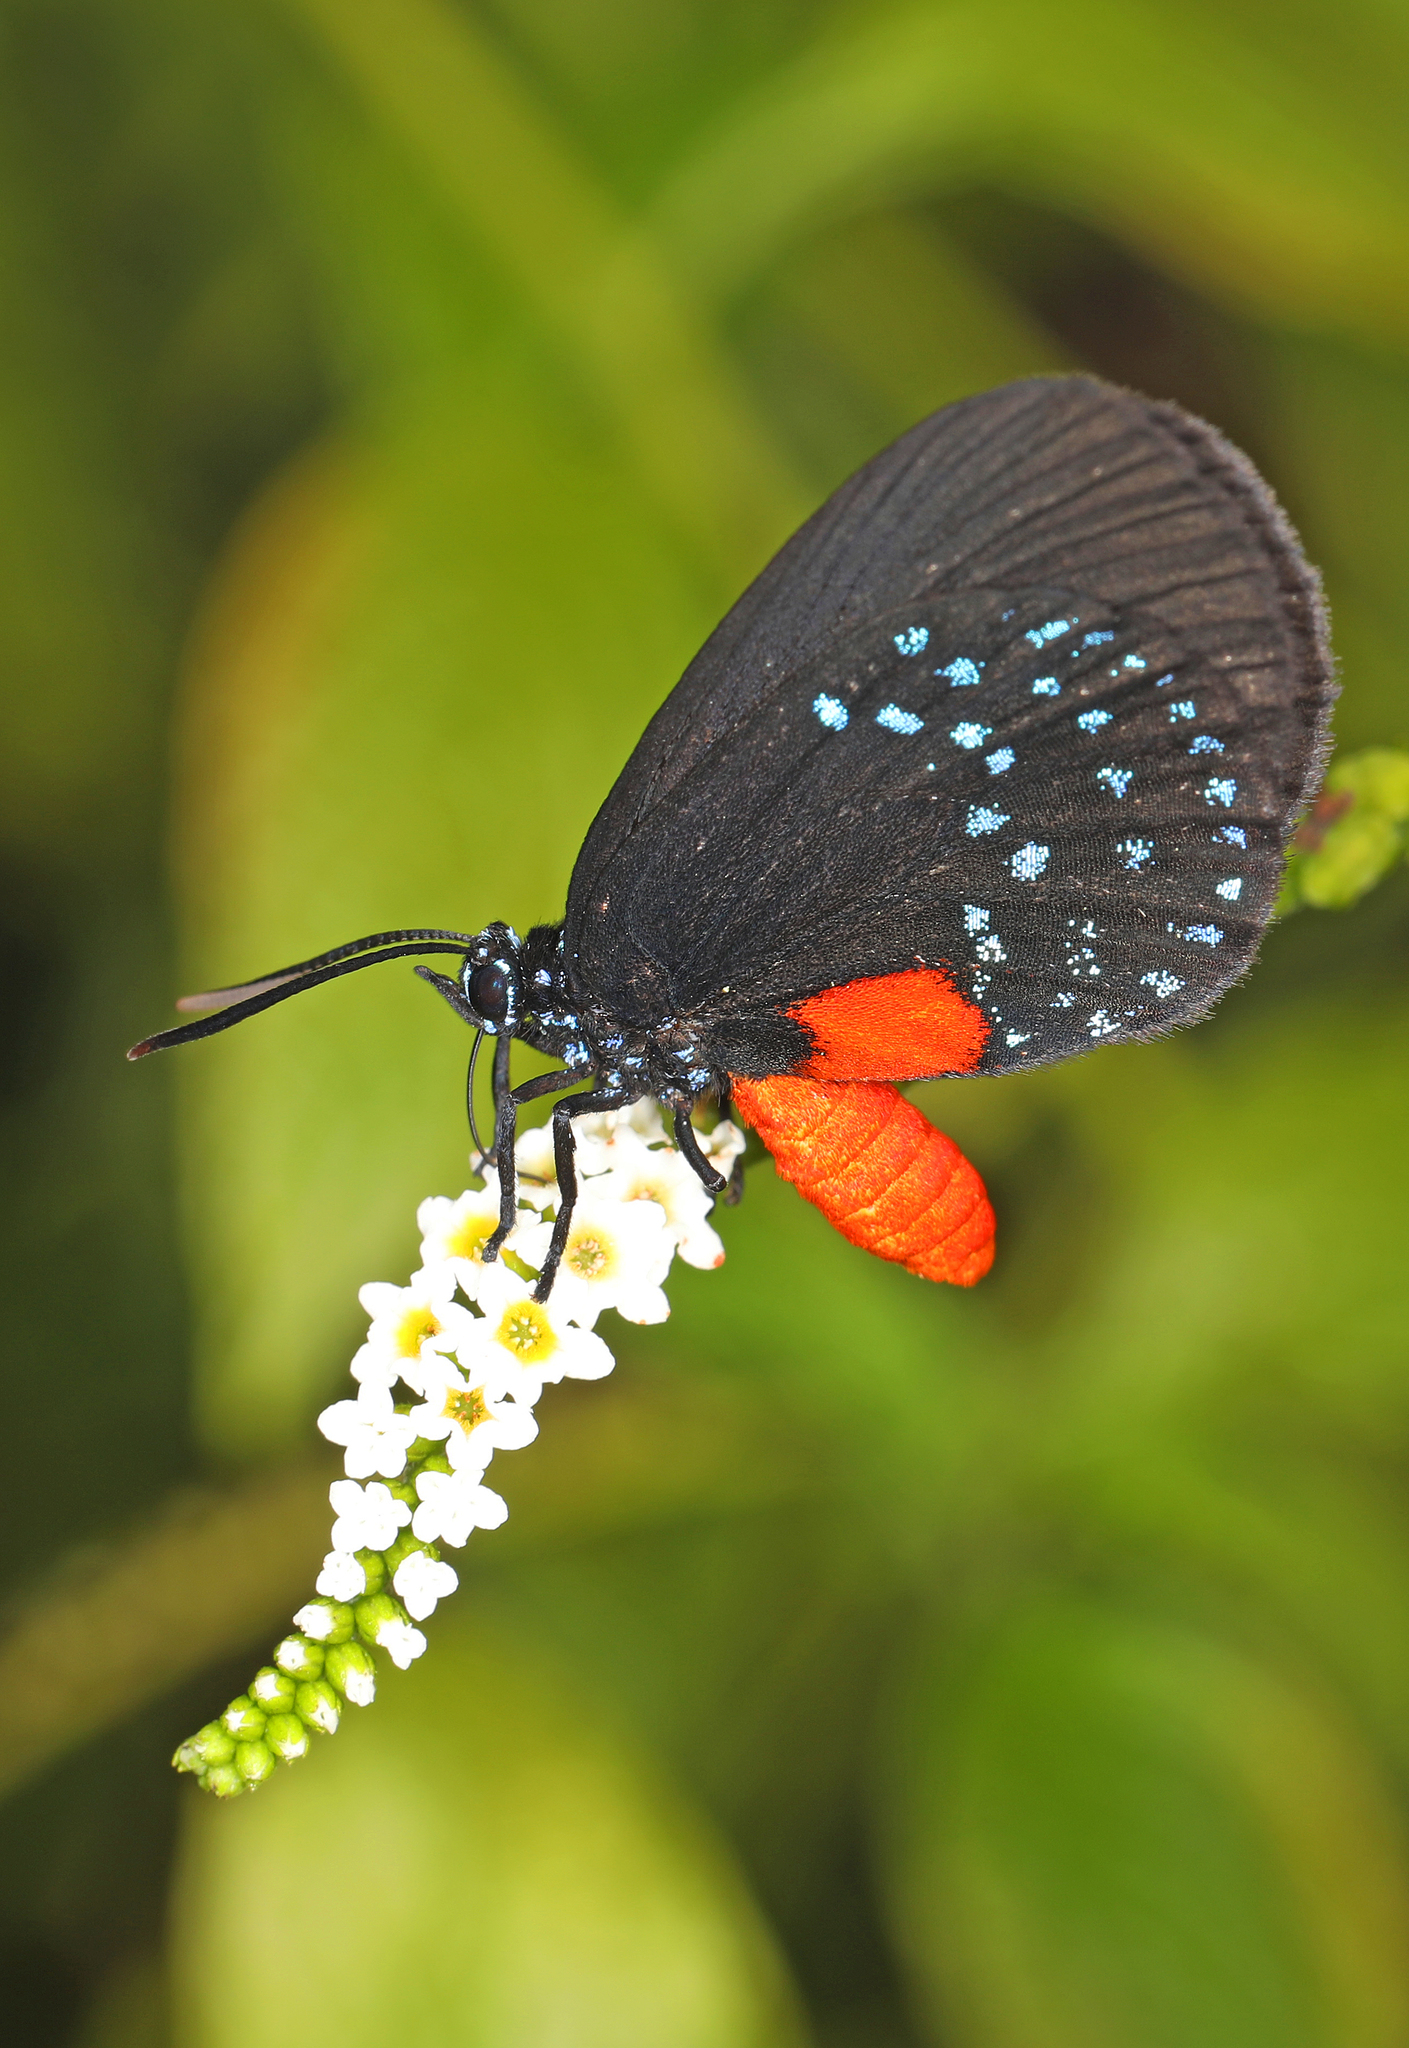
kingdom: Animalia
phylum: Arthropoda
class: Insecta
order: Lepidoptera
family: Lycaenidae
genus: Eumaeus
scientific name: Eumaeus atala
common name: Atala
